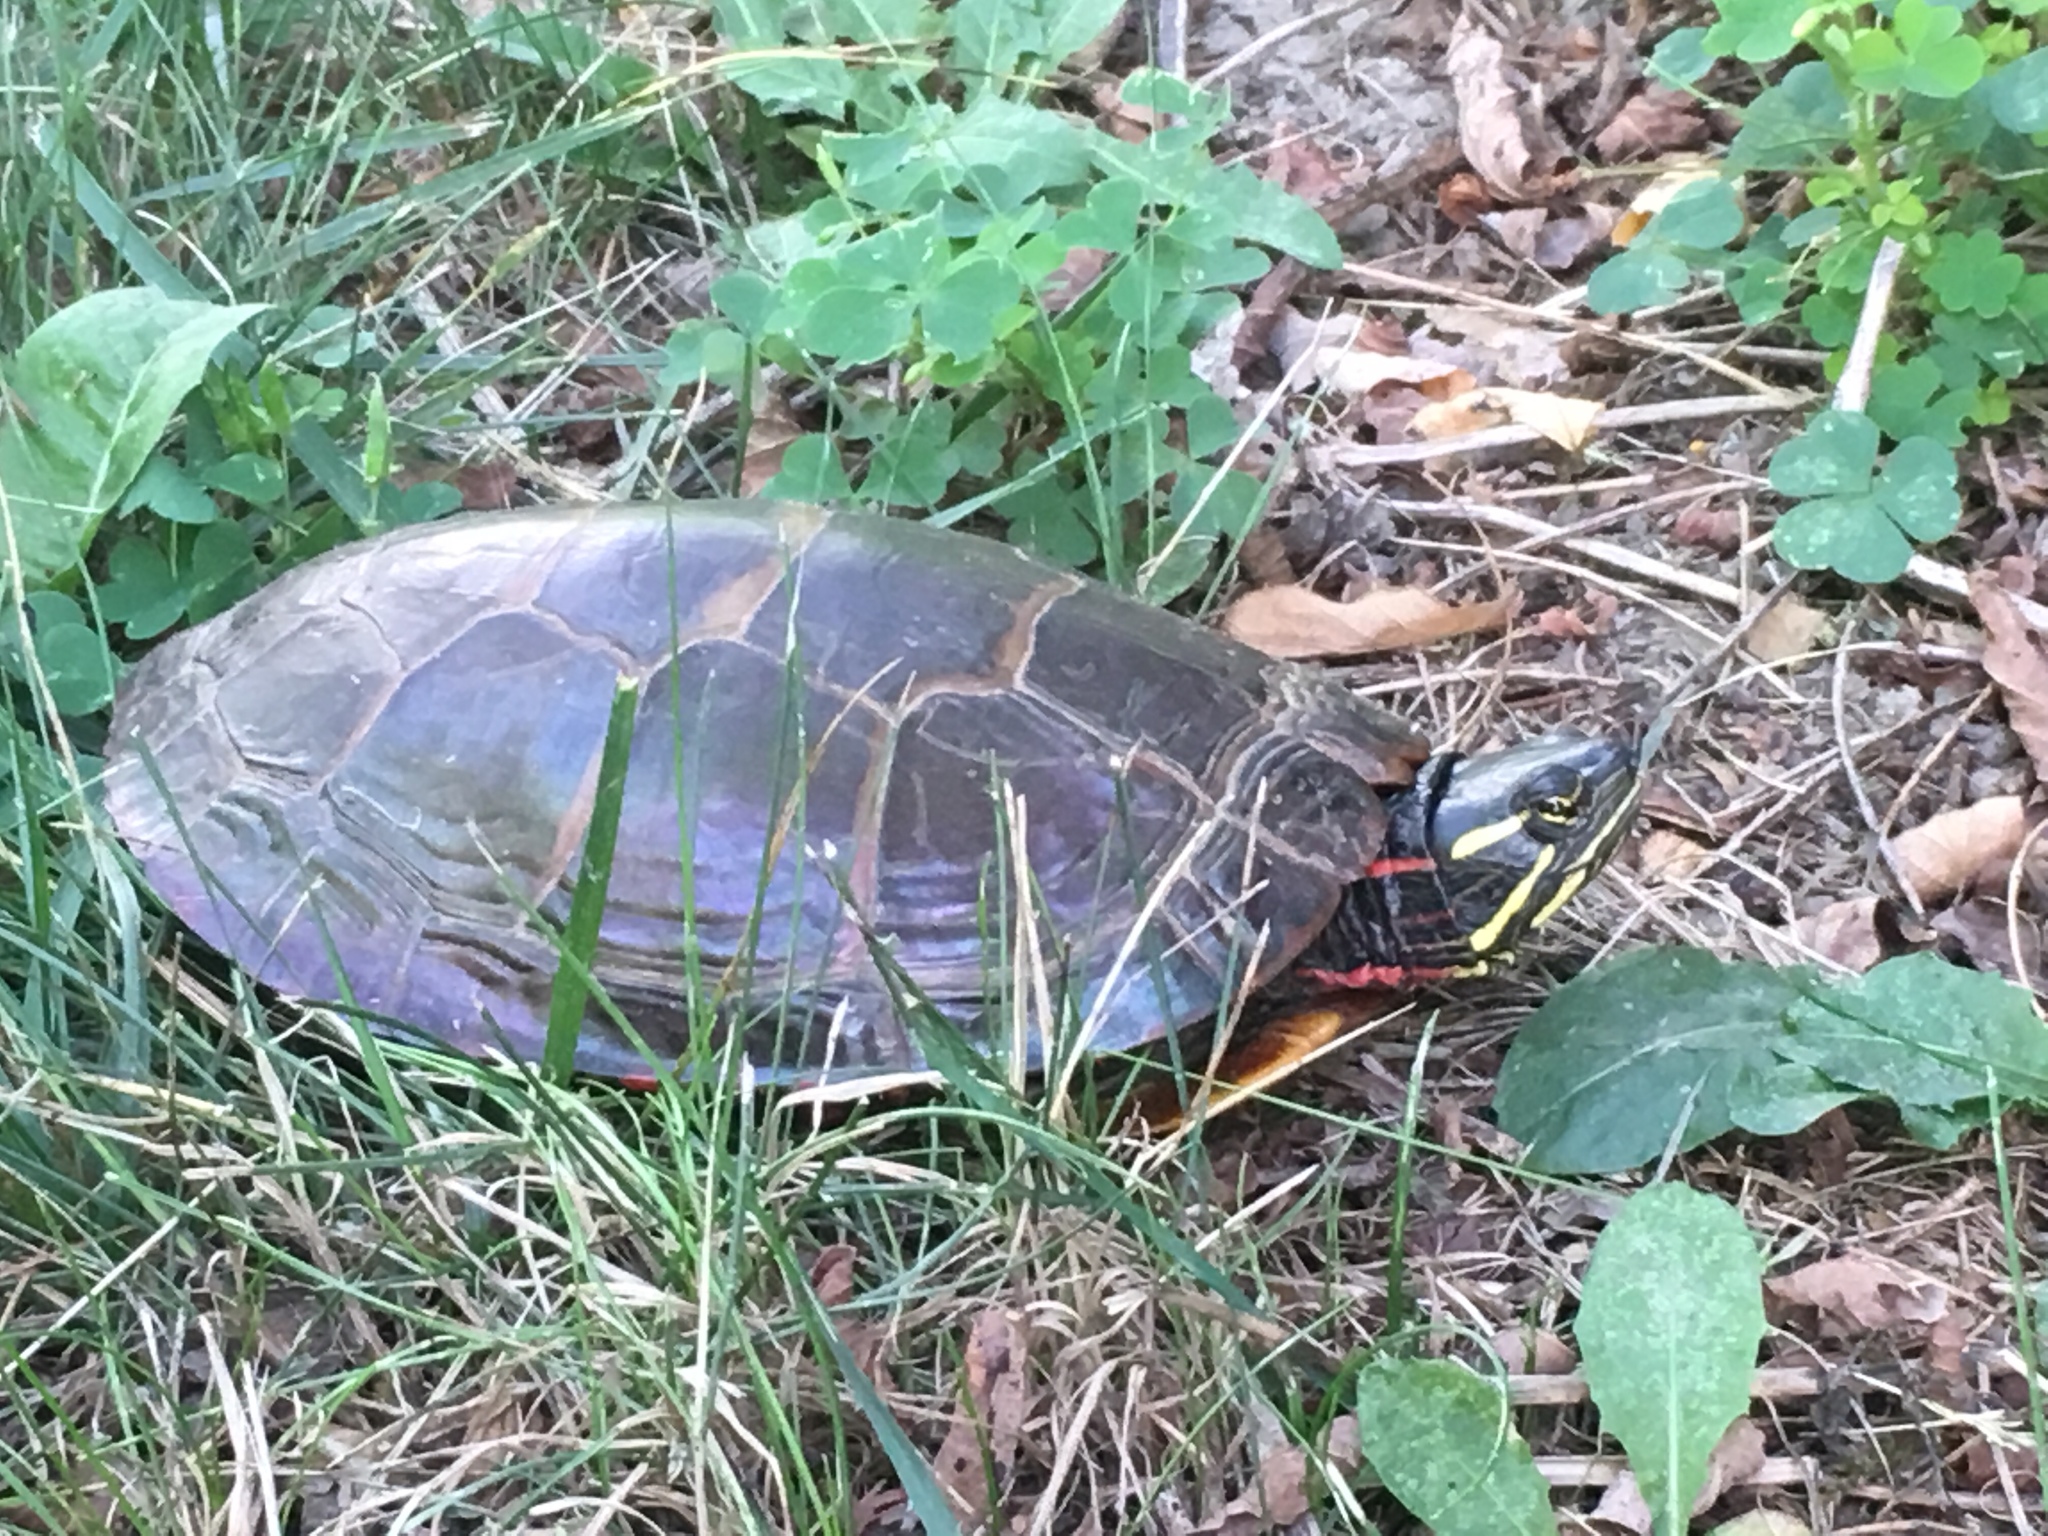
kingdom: Animalia
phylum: Chordata
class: Testudines
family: Emydidae
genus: Chrysemys
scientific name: Chrysemys picta
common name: Painted turtle
